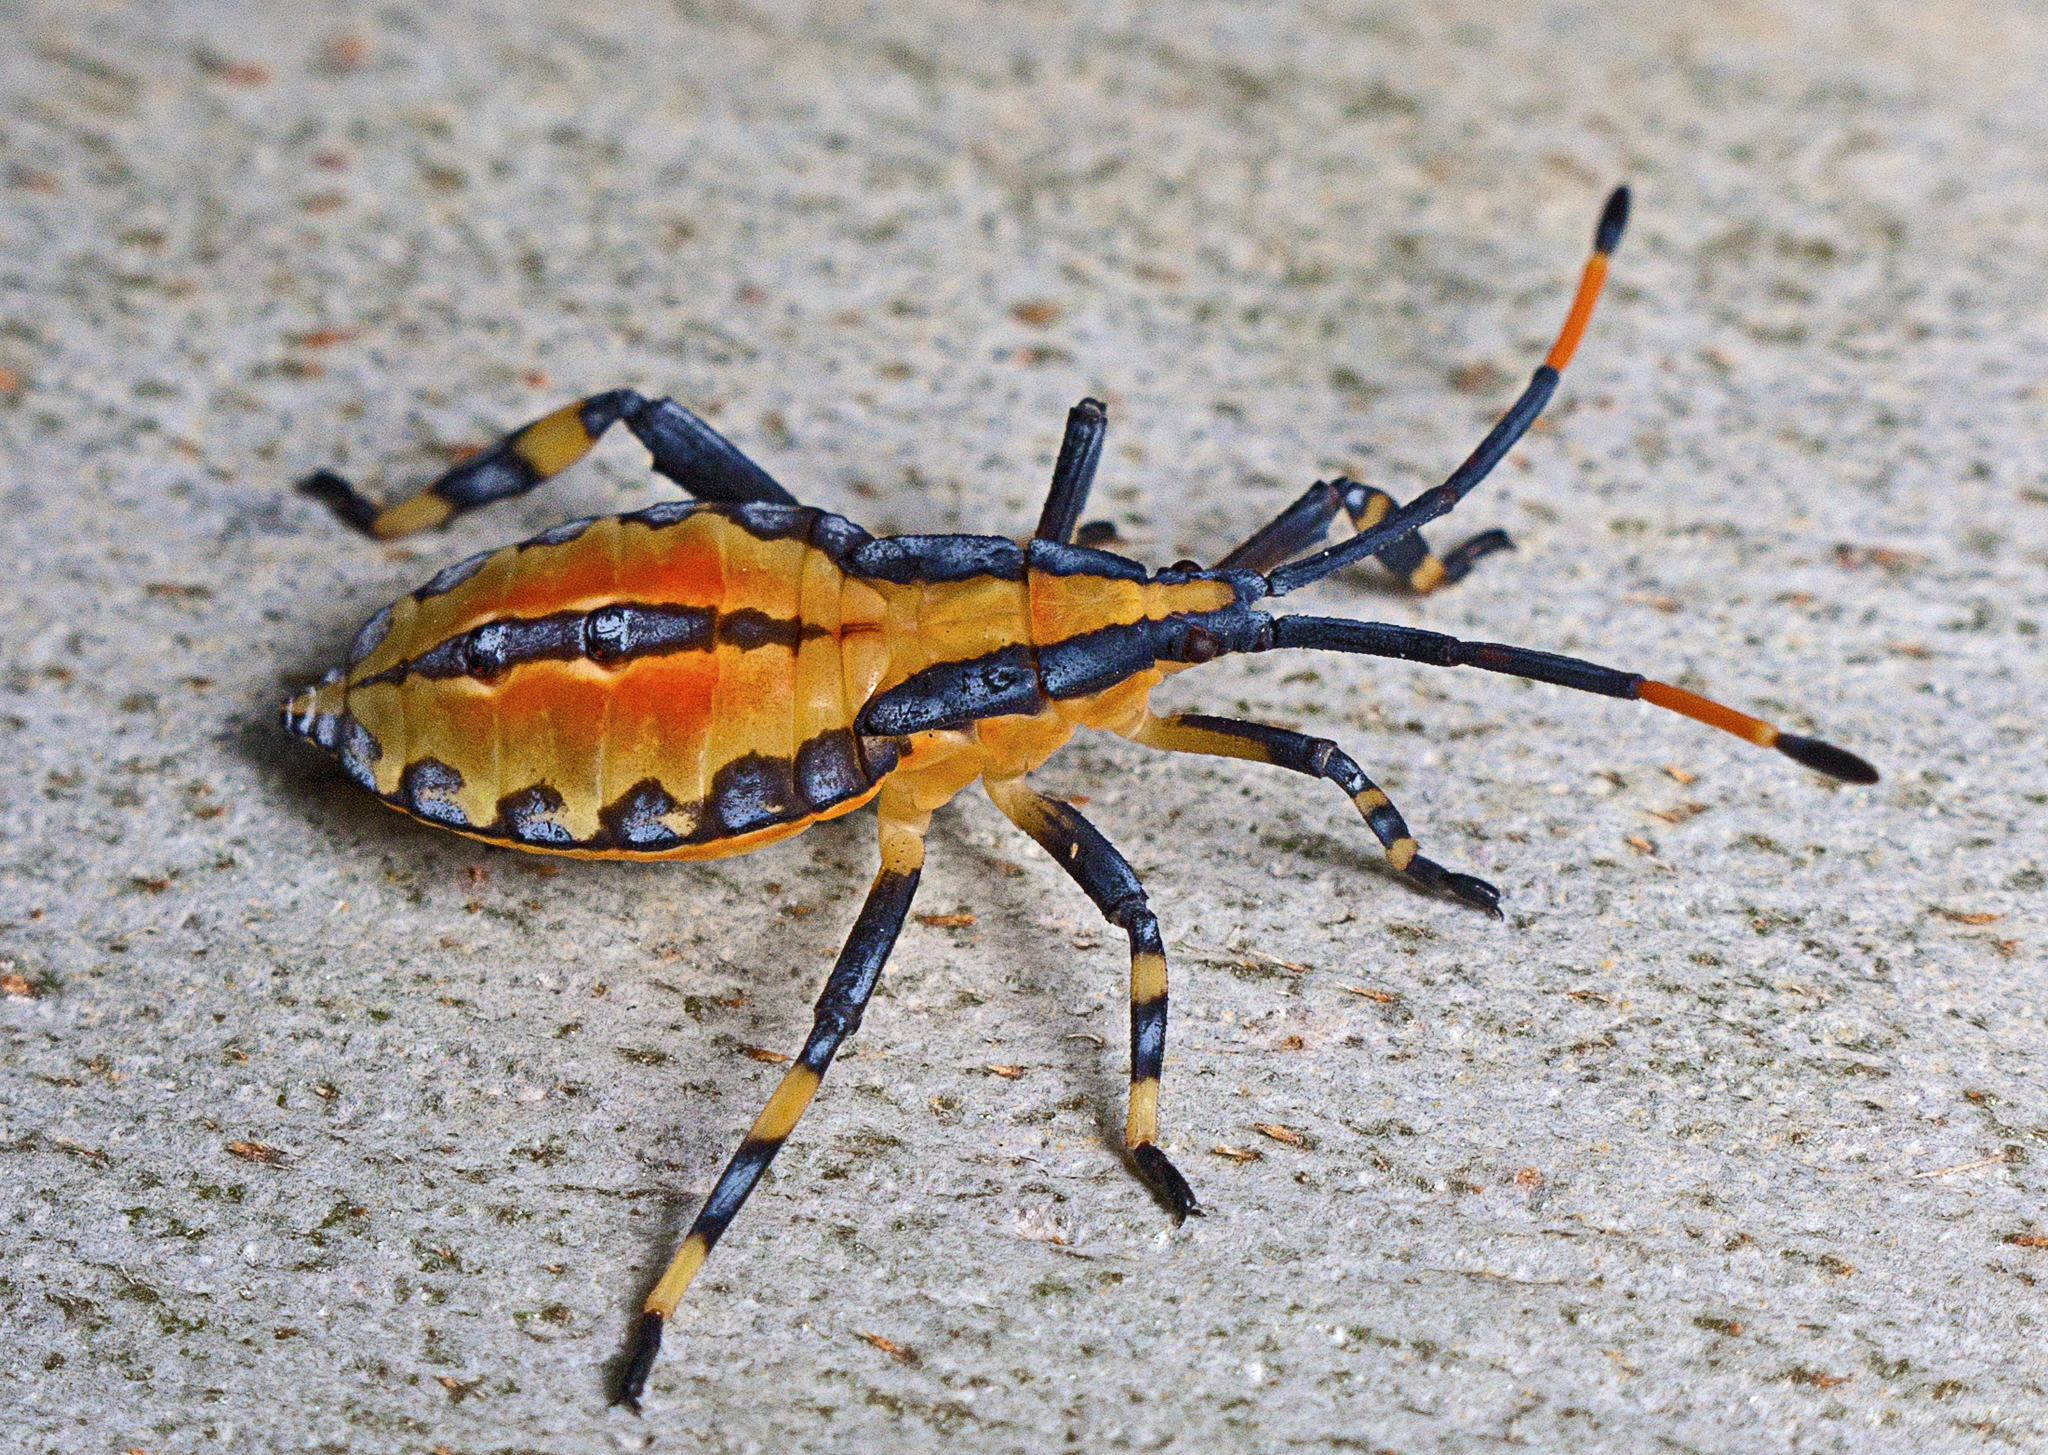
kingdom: Animalia
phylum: Arthropoda
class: Insecta
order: Hemiptera
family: Coreidae
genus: Amorbus
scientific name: Amorbus alternatus
